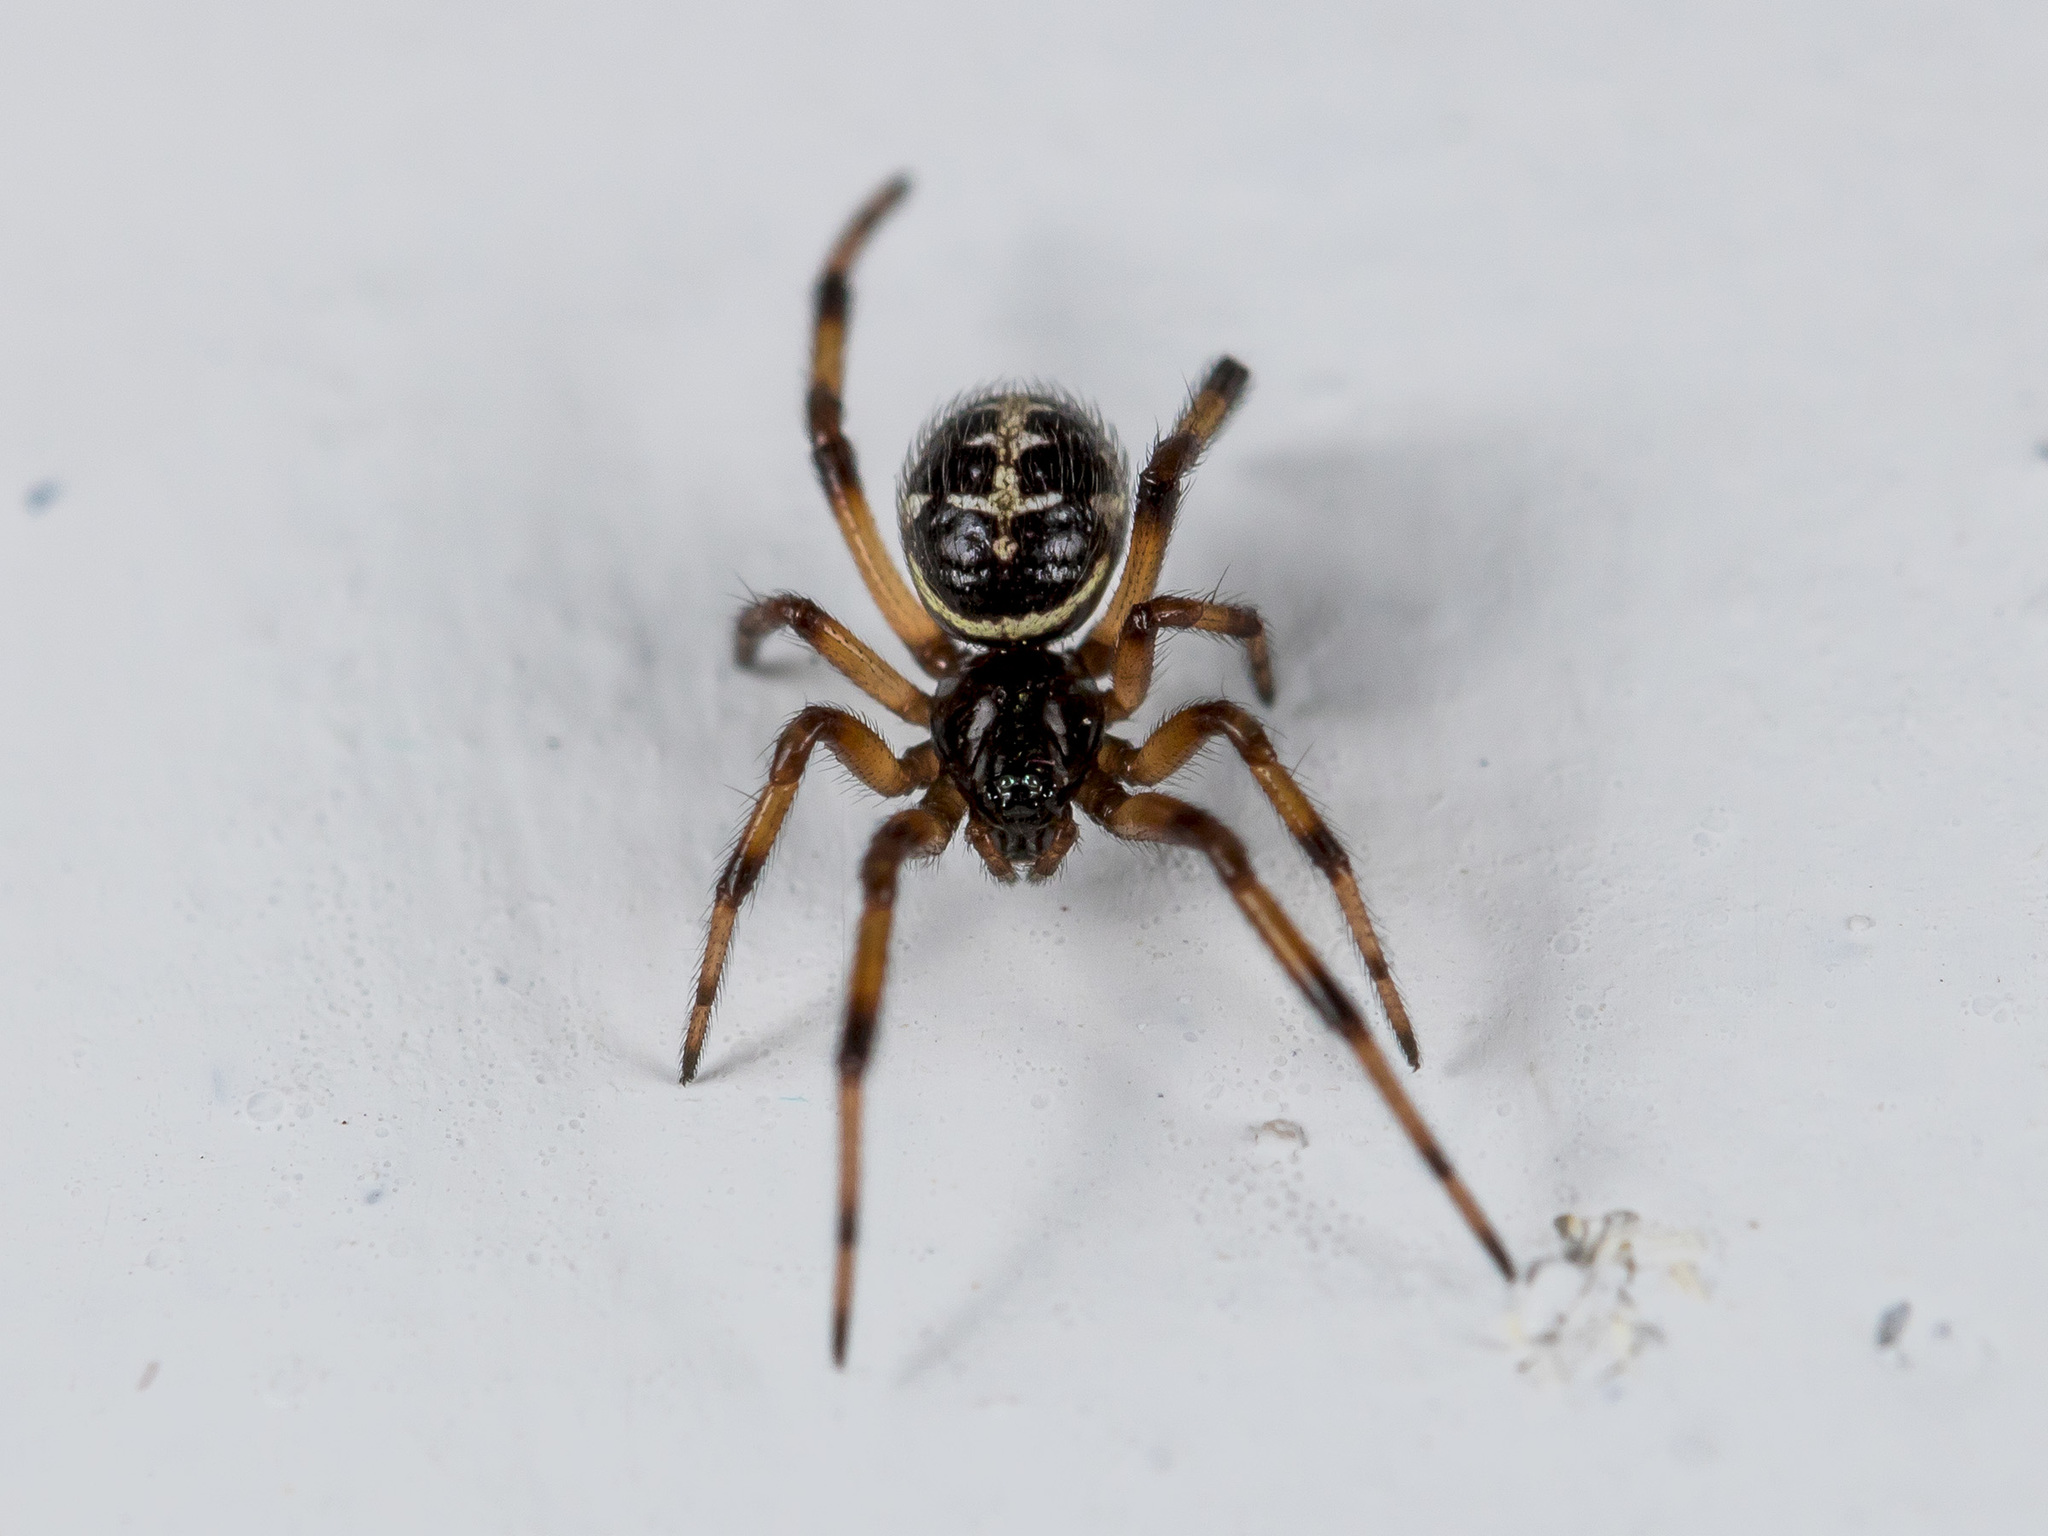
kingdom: Animalia
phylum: Arthropoda
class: Arachnida
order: Araneae
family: Theridiidae
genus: Steatoda
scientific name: Steatoda paykulliana
